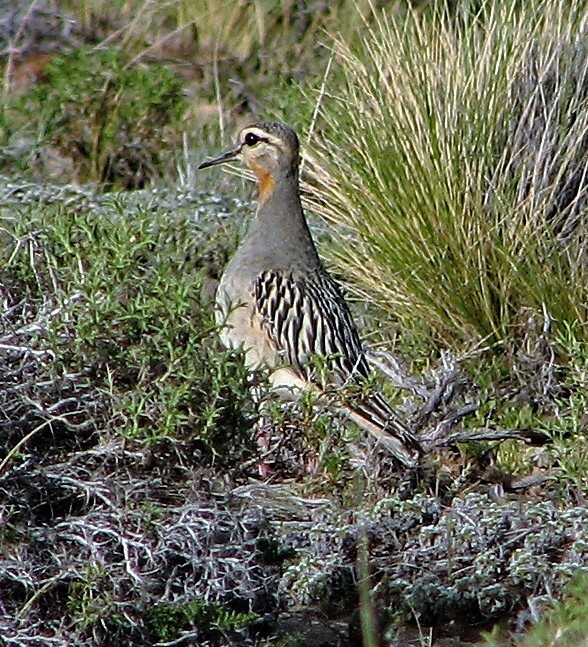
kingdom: Animalia
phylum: Chordata
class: Aves
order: Charadriiformes
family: Charadriidae
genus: Oreopholus
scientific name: Oreopholus ruficollis
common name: Tawny-throated dotterel
